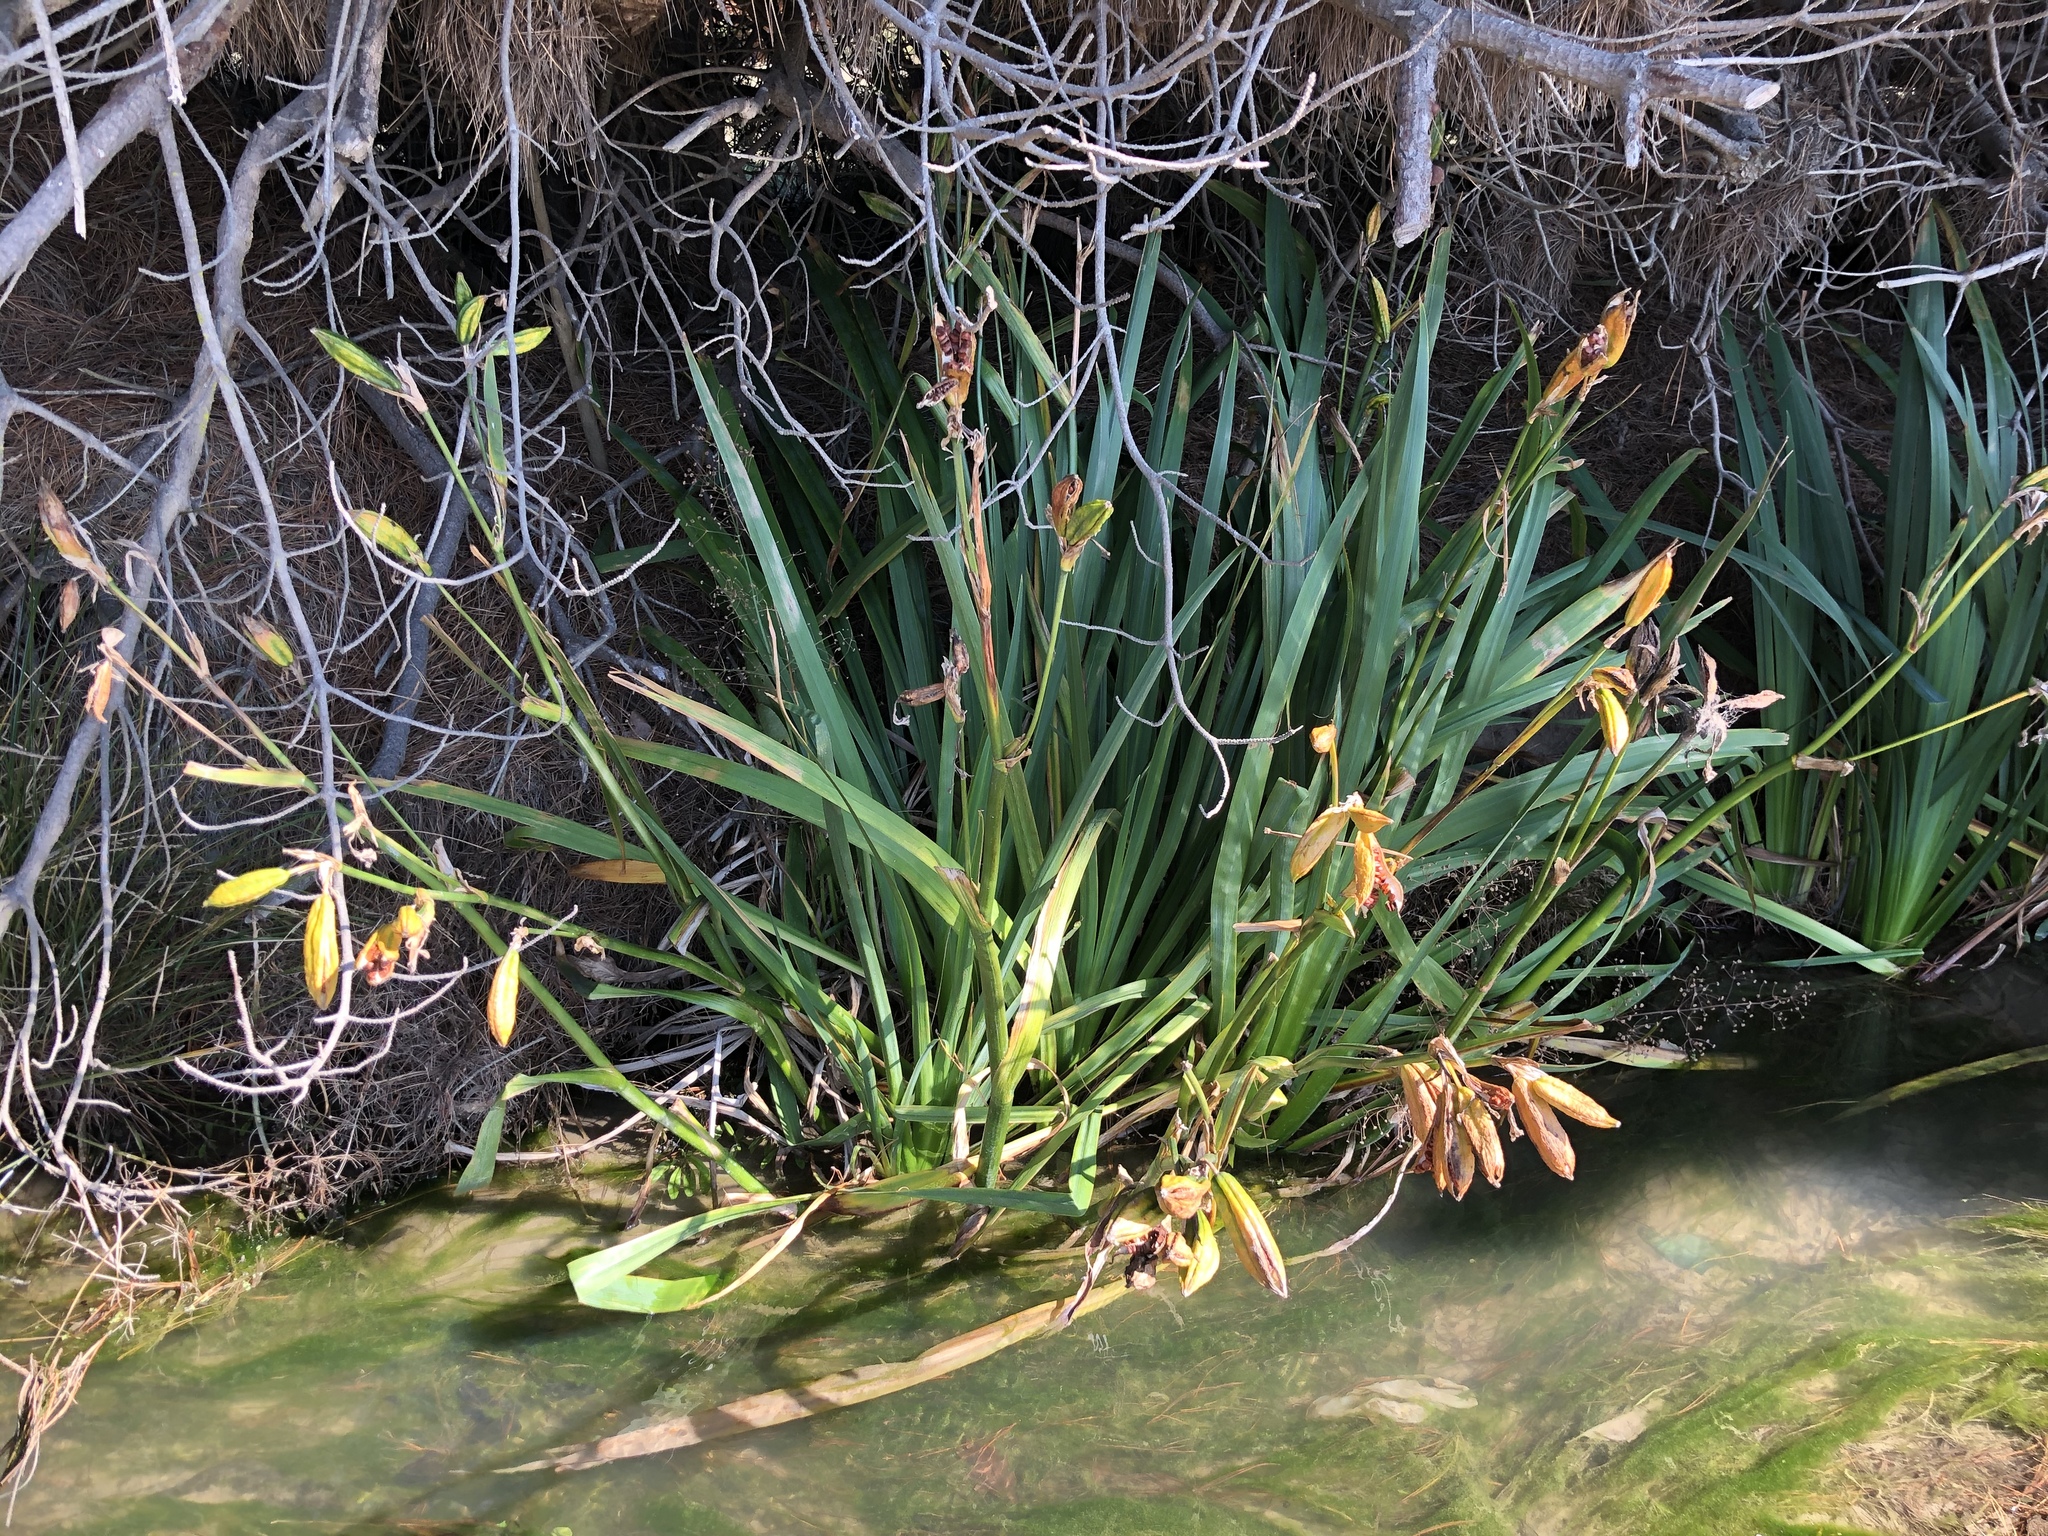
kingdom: Plantae
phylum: Tracheophyta
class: Liliopsida
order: Asparagales
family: Iridaceae
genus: Iris
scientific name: Iris pseudacorus
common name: Yellow flag
